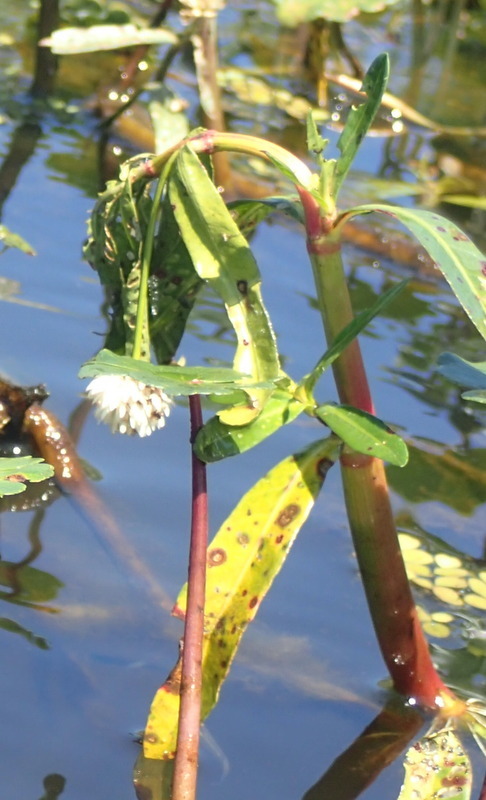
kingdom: Plantae
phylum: Tracheophyta
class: Magnoliopsida
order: Caryophyllales
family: Amaranthaceae
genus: Alternanthera
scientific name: Alternanthera philoxeroides
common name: Alligatorweed
